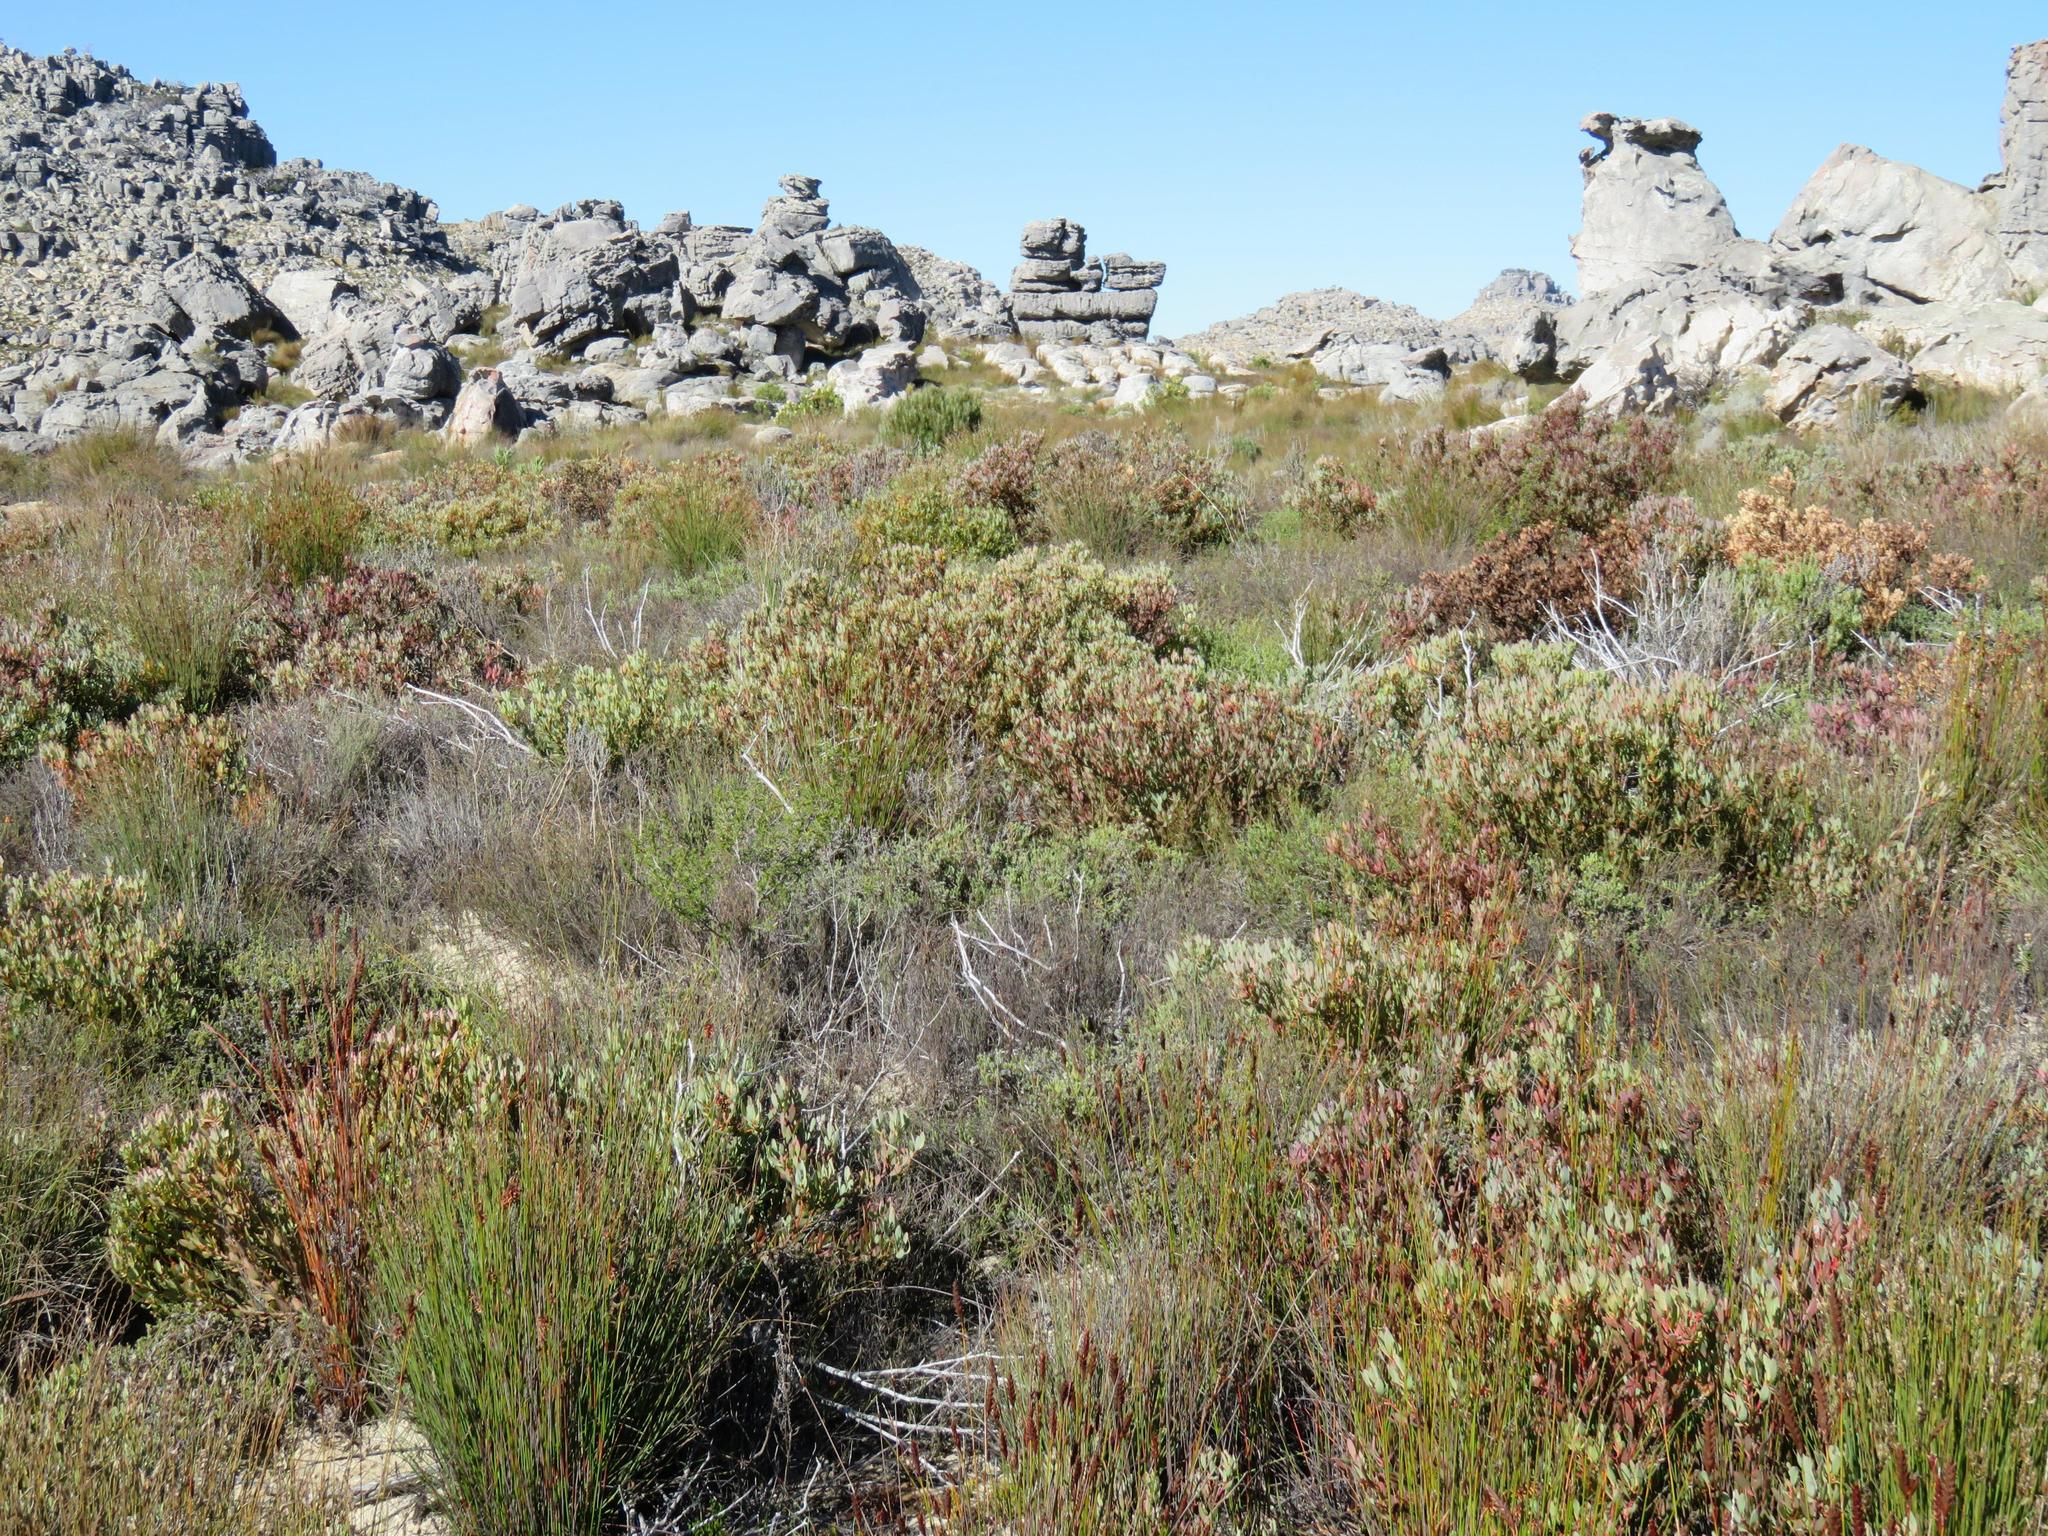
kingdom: Plantae
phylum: Tracheophyta
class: Magnoliopsida
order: Proteales
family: Proteaceae
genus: Leucadendron
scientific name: Leucadendron glaberrimum
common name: Common oily conebush
